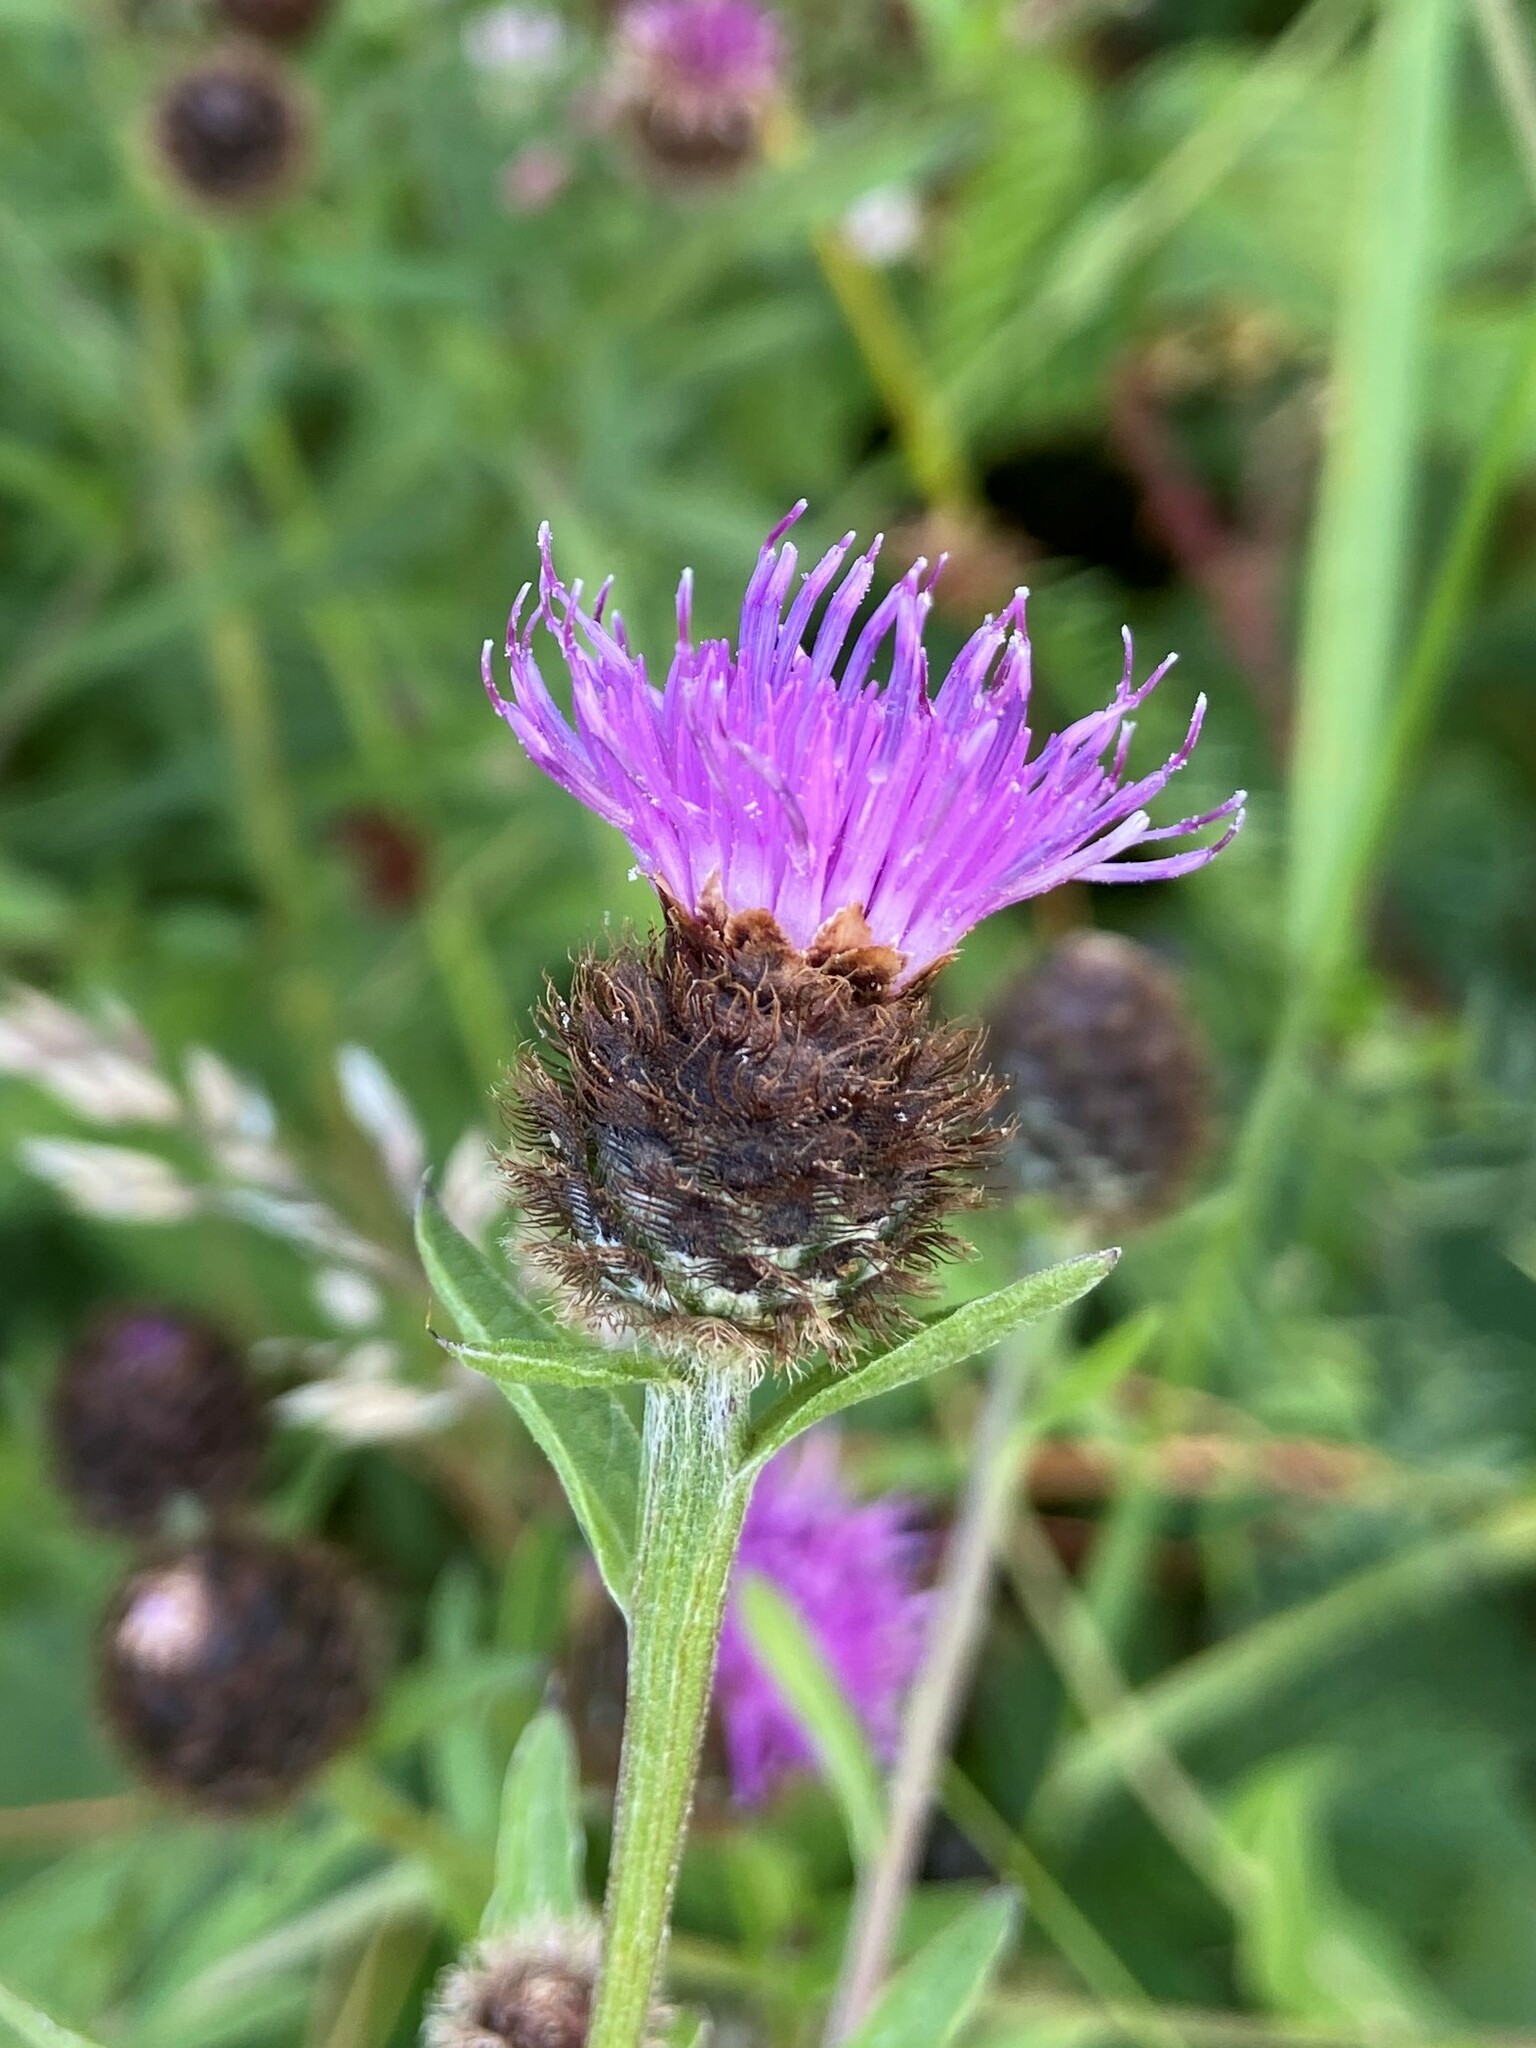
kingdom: Plantae
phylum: Tracheophyta
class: Magnoliopsida
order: Asterales
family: Asteraceae
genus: Centaurea
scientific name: Centaurea nigra
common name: Lesser knapweed
